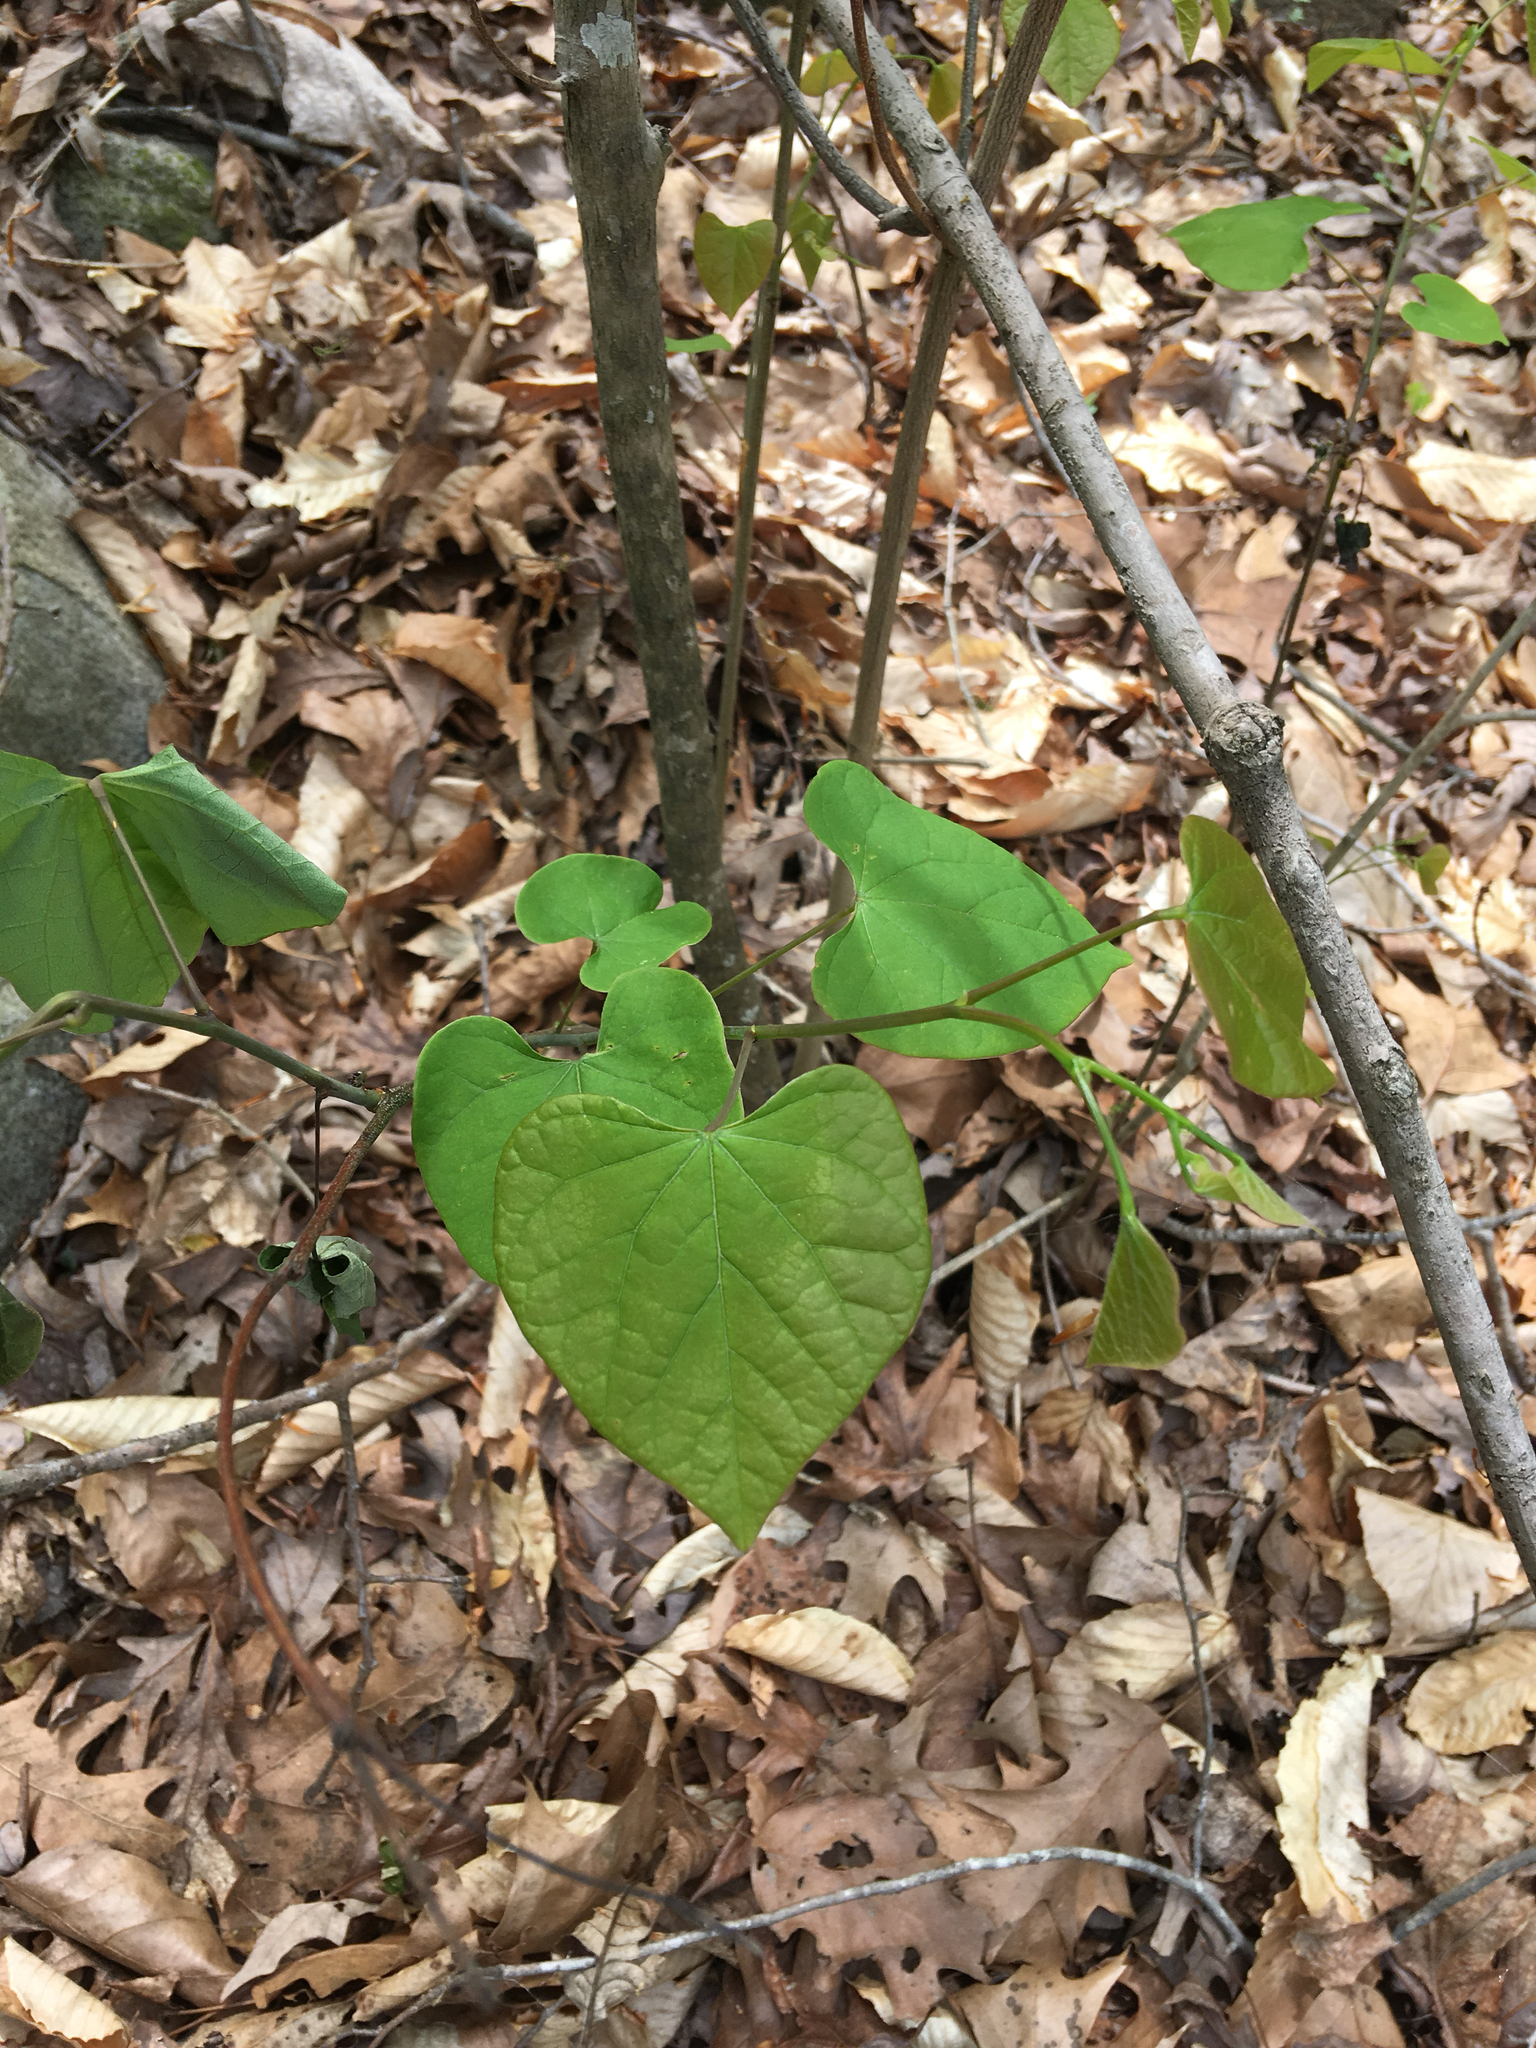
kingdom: Plantae
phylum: Tracheophyta
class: Magnoliopsida
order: Fabales
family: Fabaceae
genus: Cercis
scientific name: Cercis canadensis
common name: Eastern redbud
